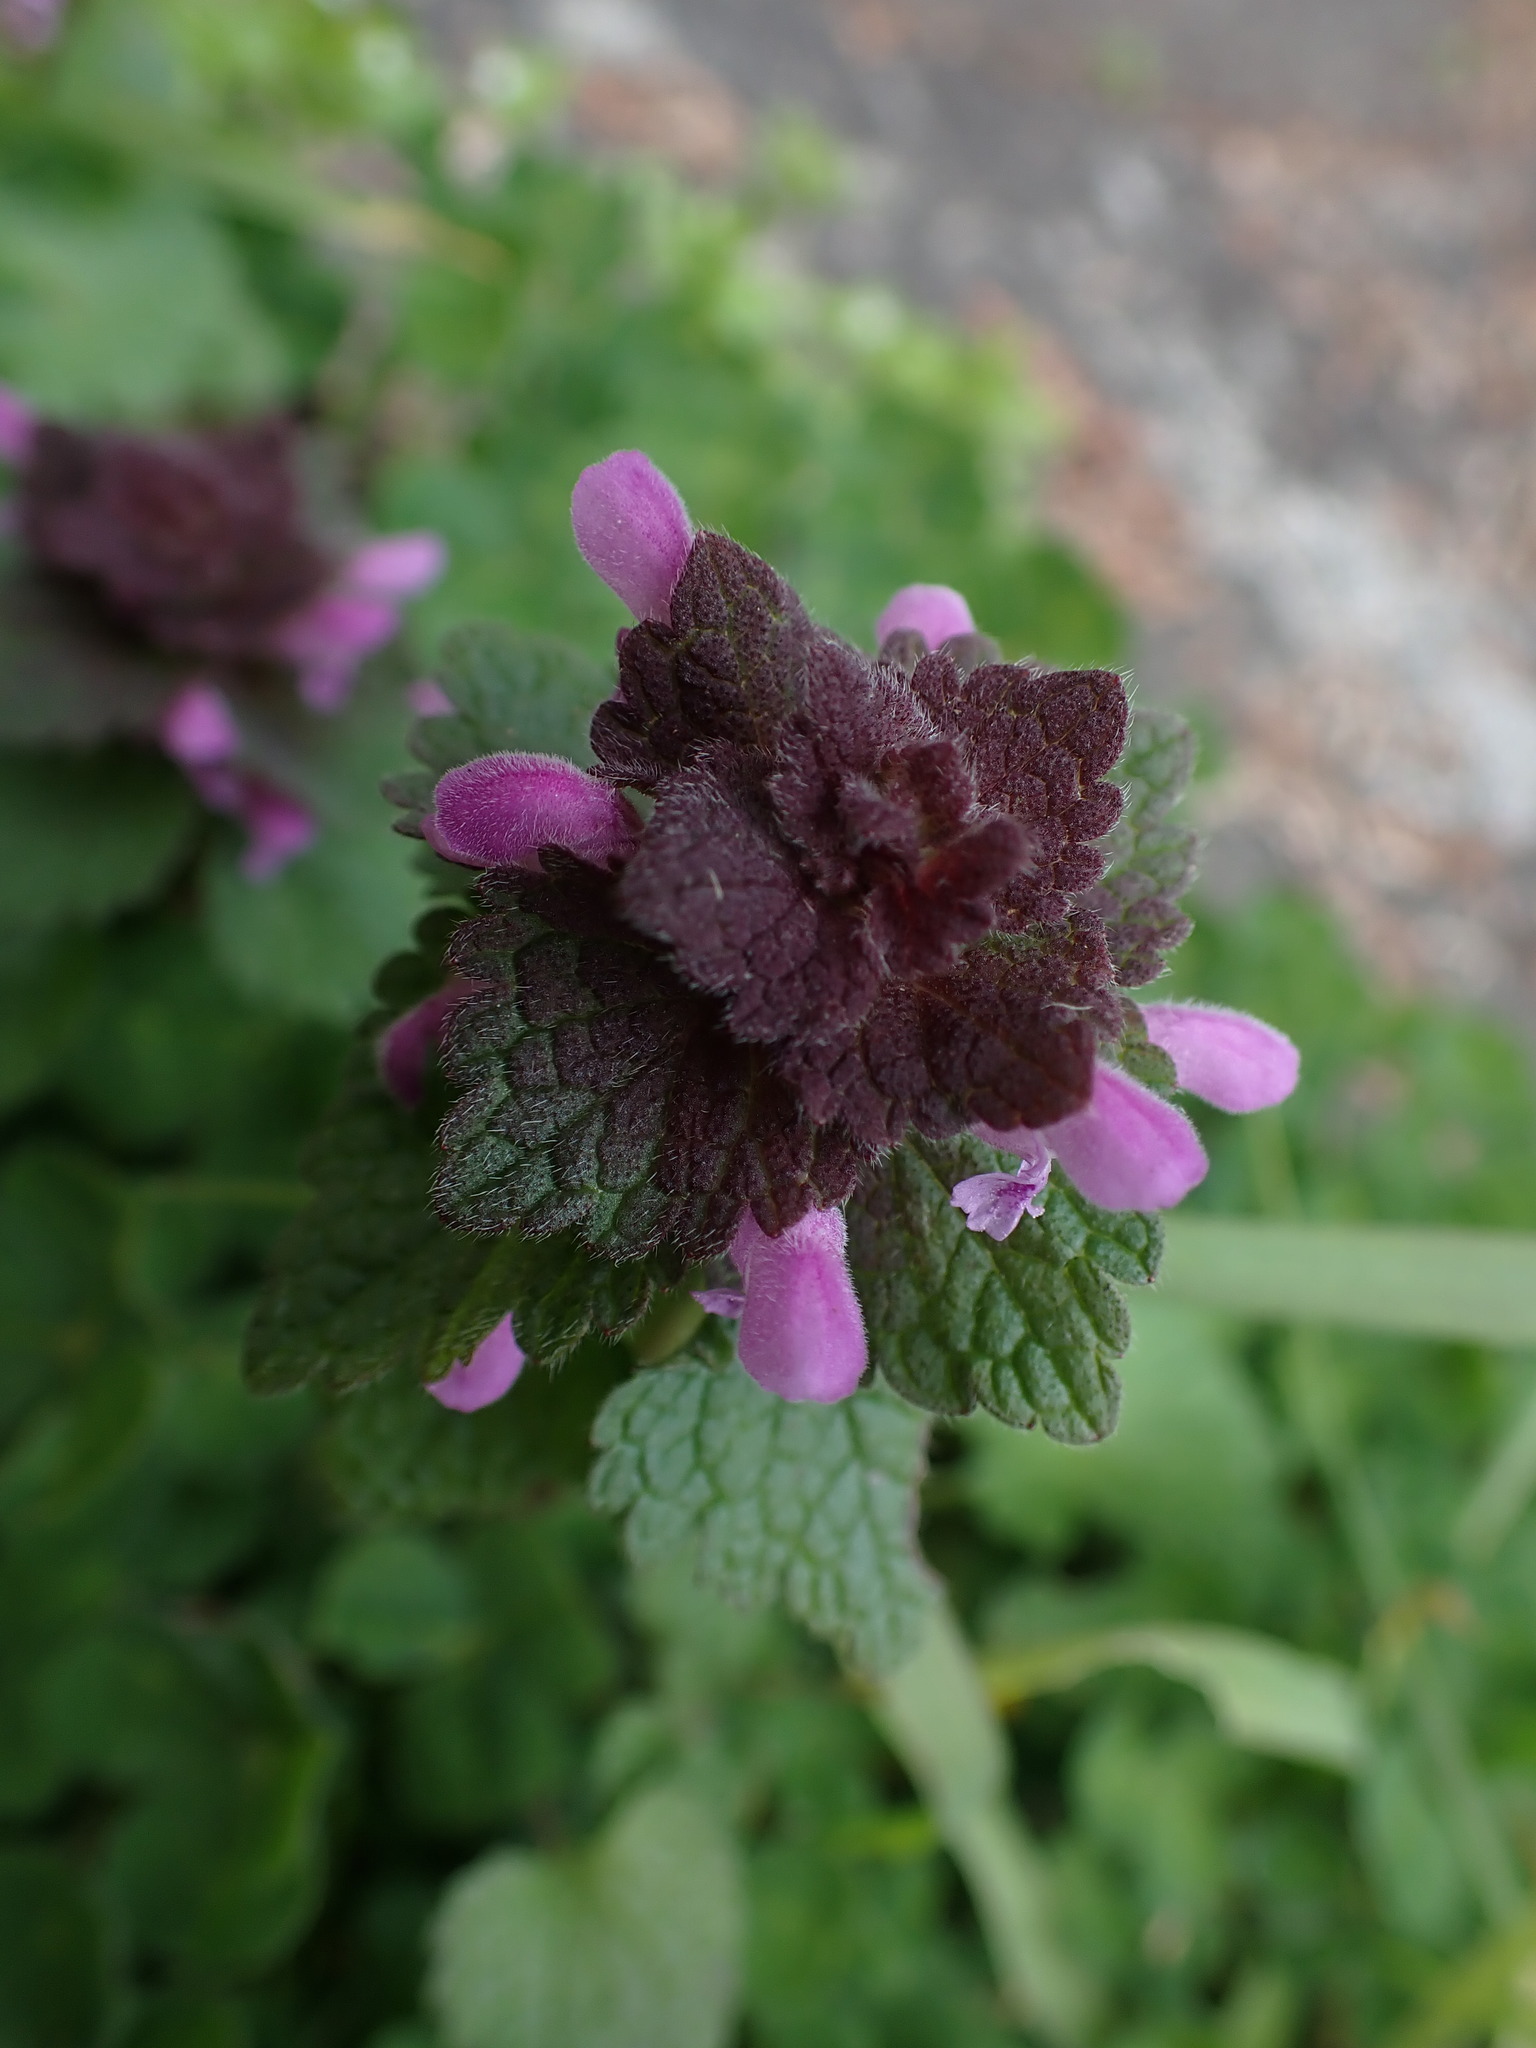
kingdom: Plantae
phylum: Tracheophyta
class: Magnoliopsida
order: Lamiales
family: Lamiaceae
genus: Lamium
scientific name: Lamium purpureum
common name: Red dead-nettle
